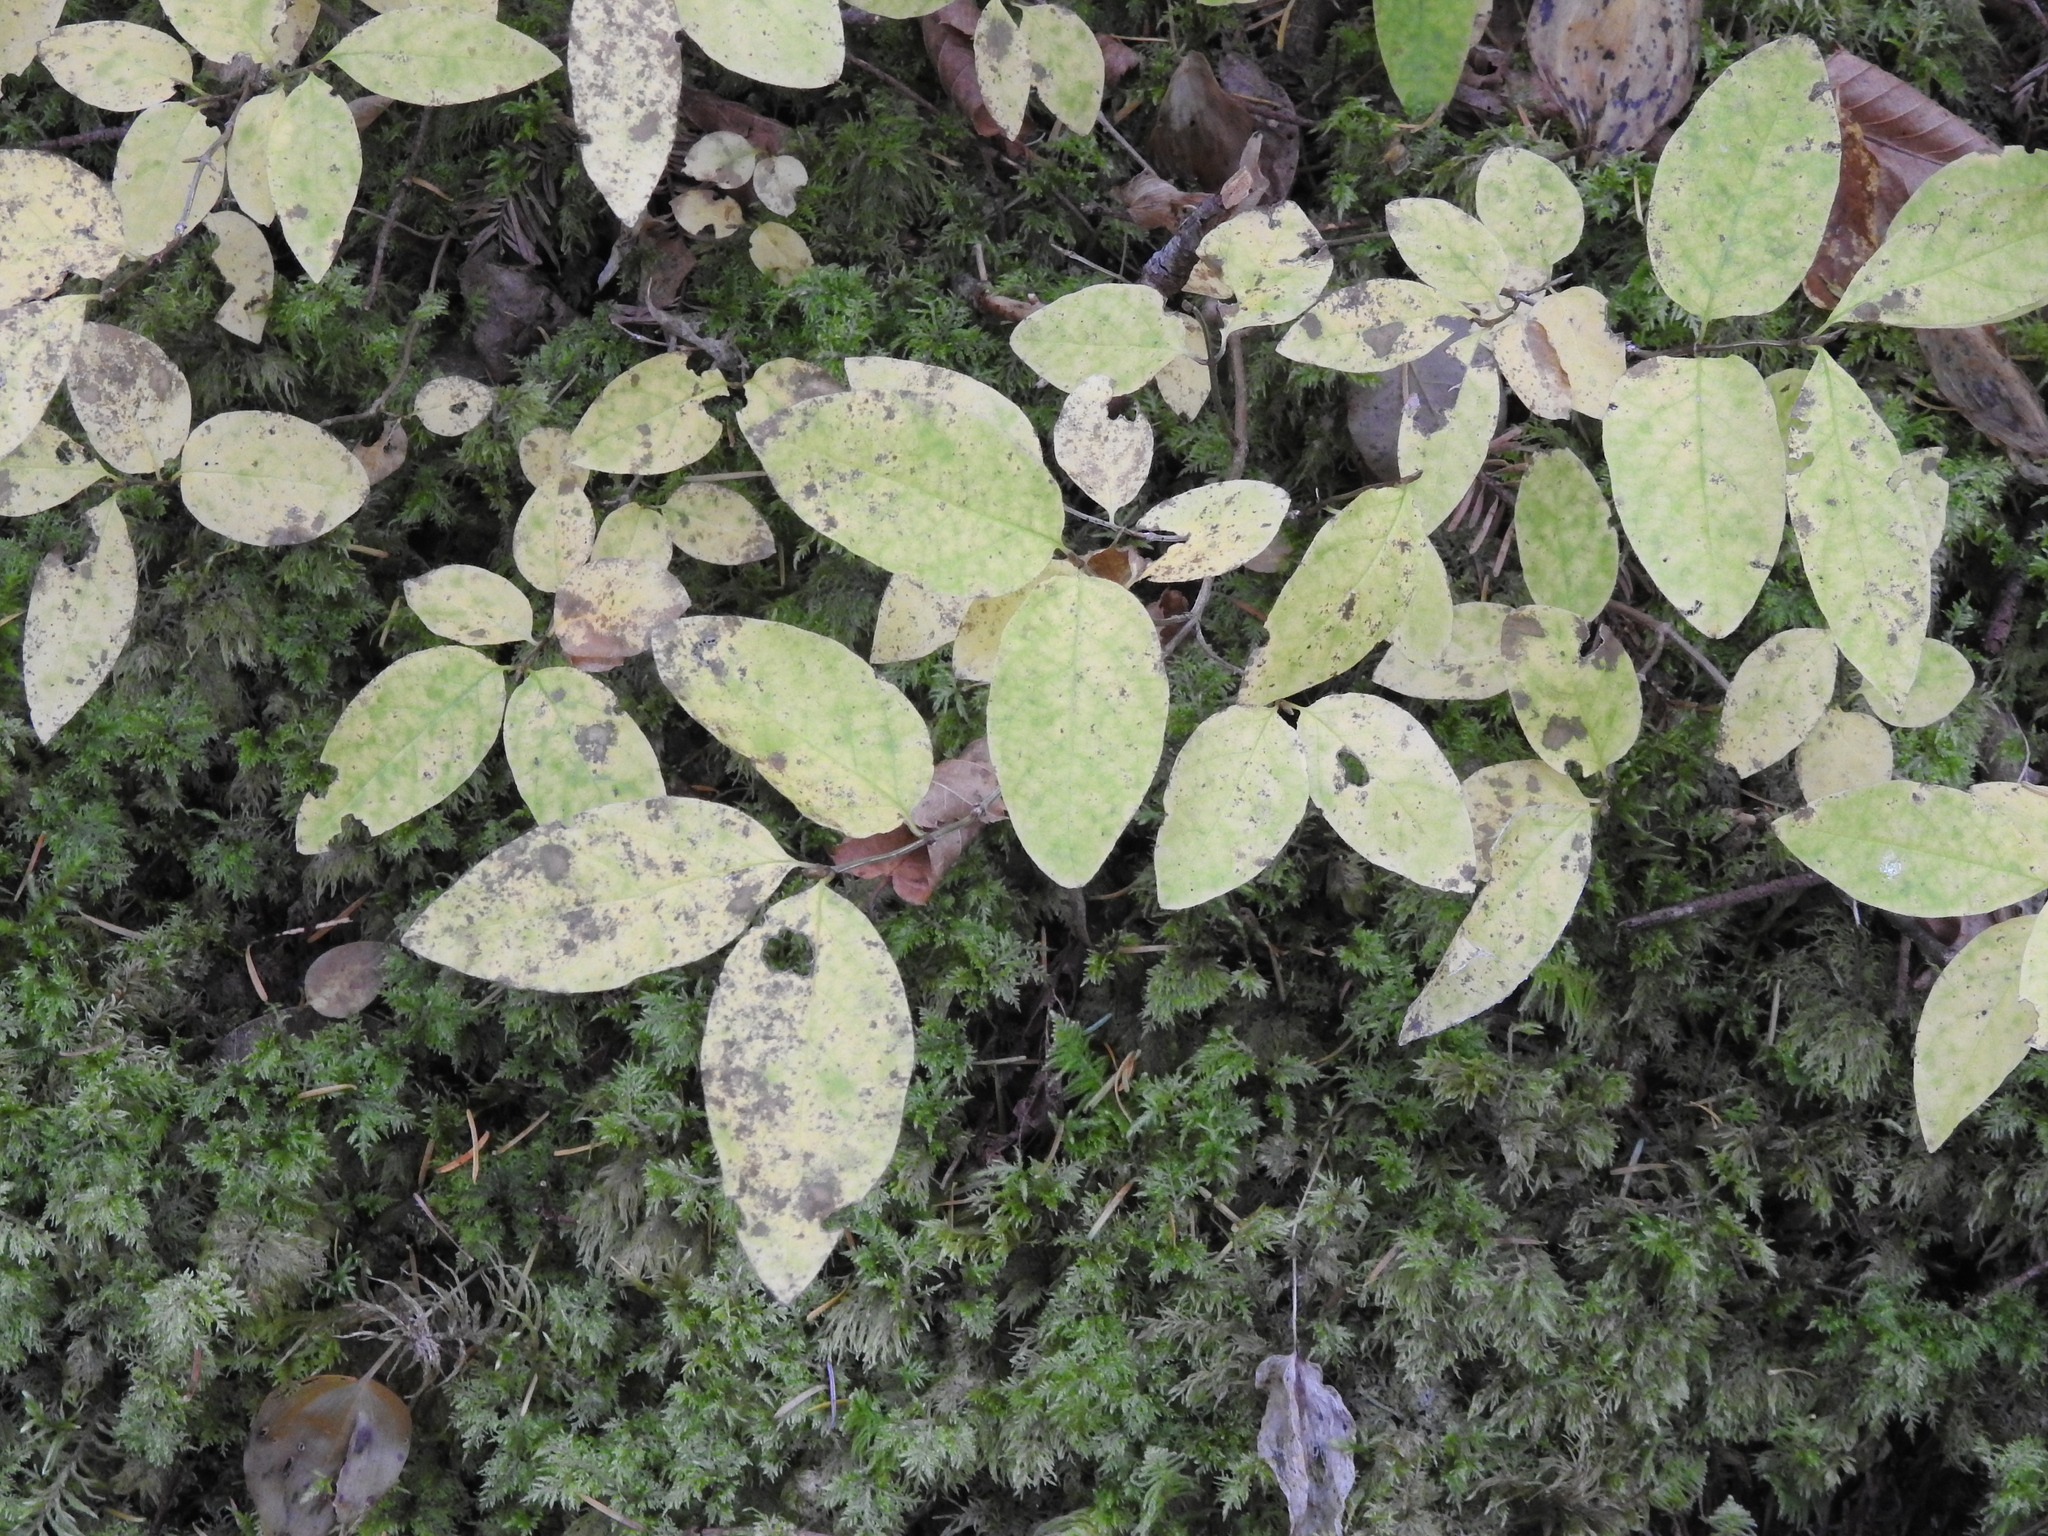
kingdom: Plantae
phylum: Tracheophyta
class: Magnoliopsida
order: Dipsacales
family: Caprifoliaceae
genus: Lonicera
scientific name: Lonicera canadensis
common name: American fly-honeysuckle
